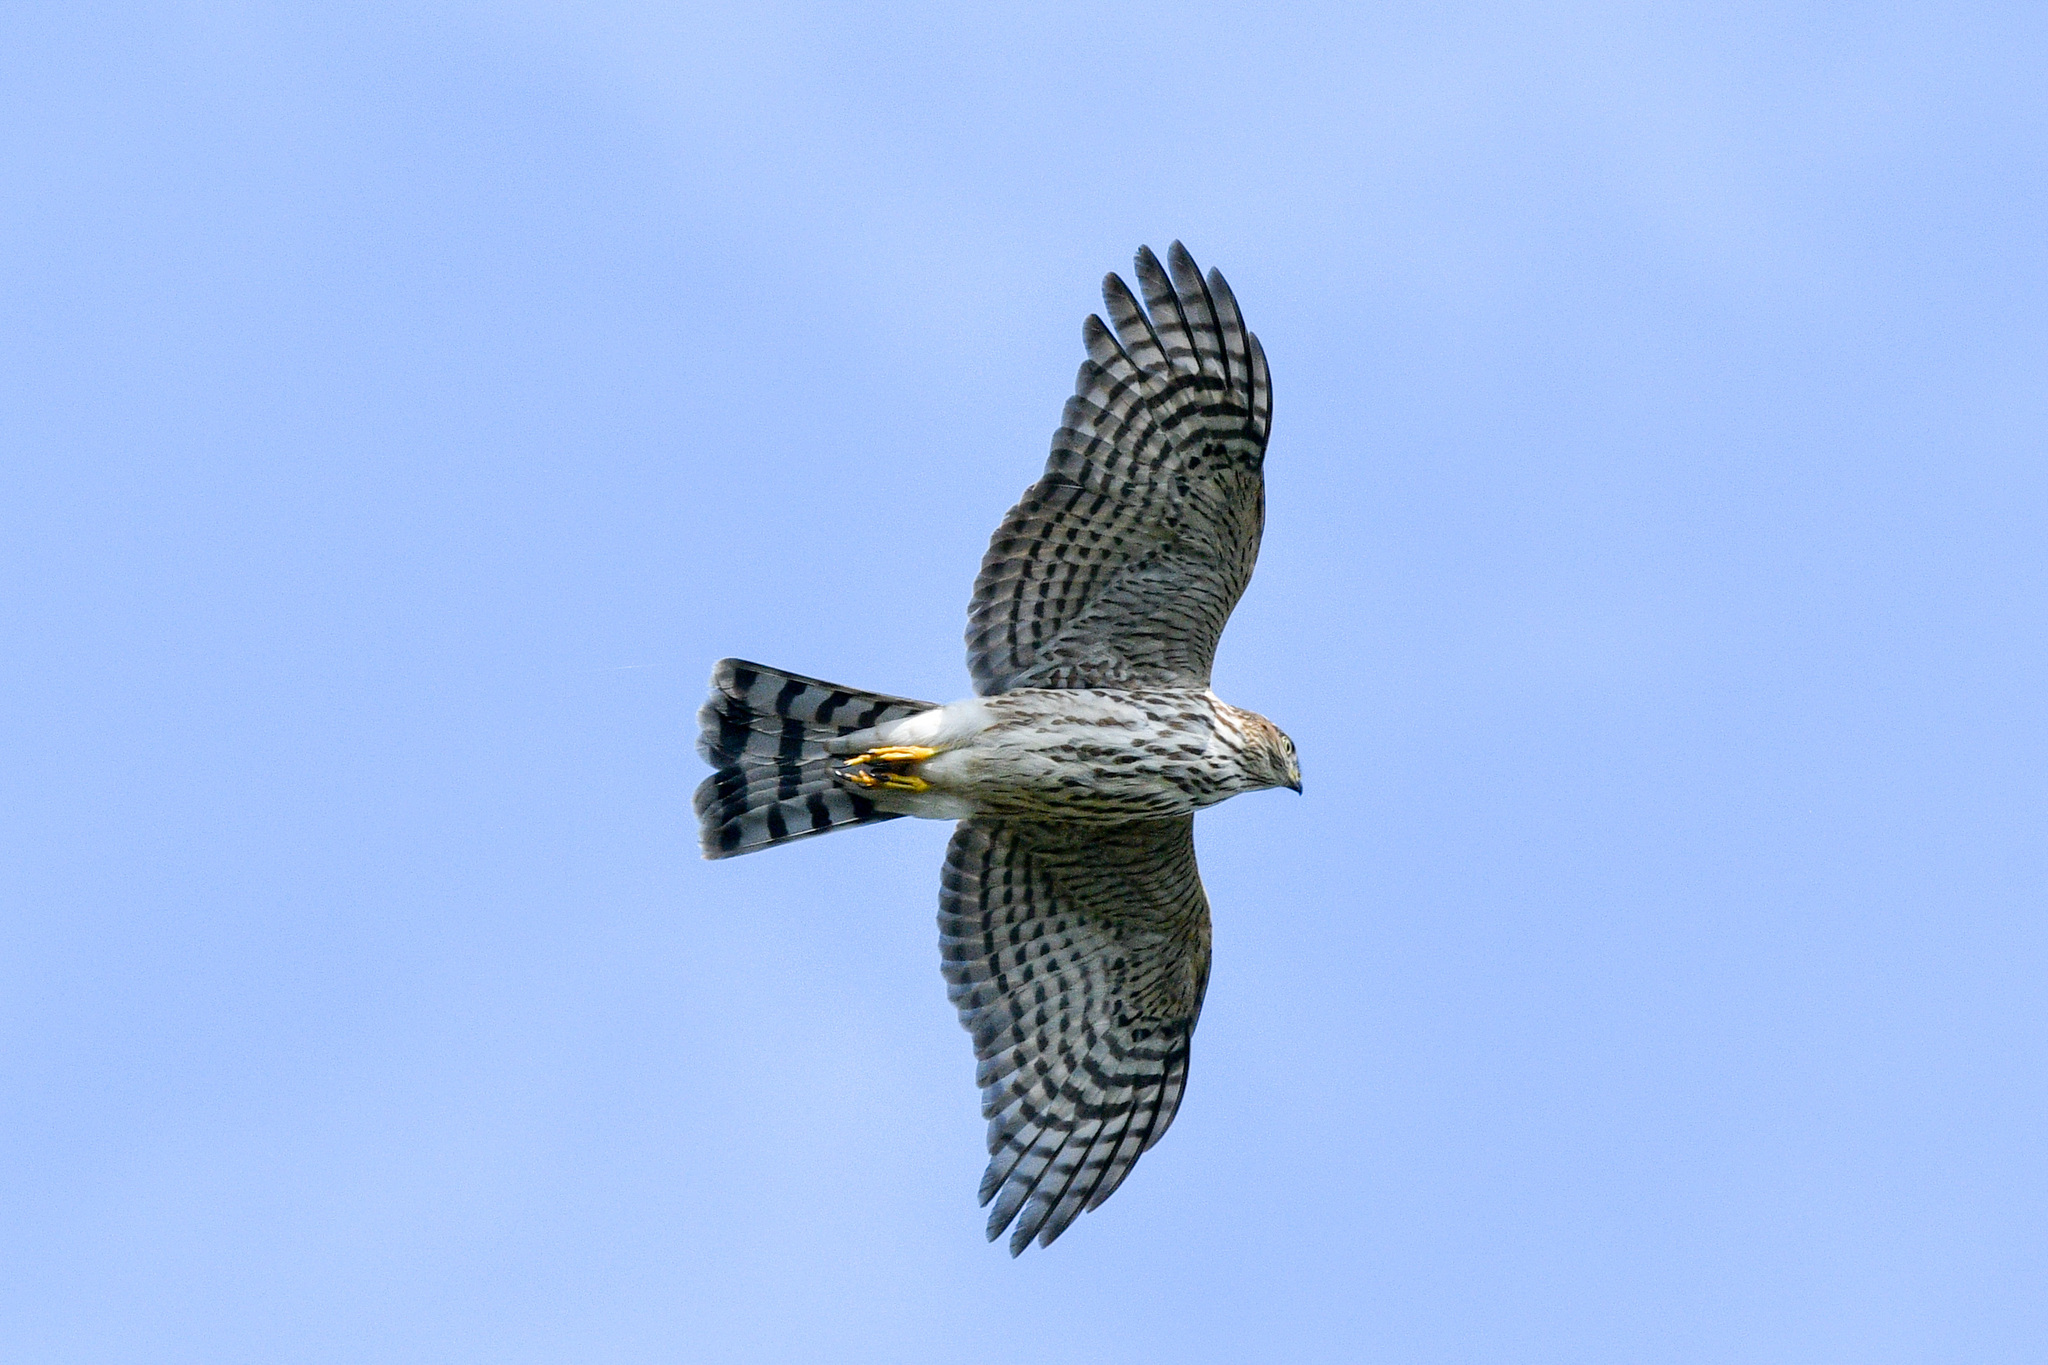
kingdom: Animalia
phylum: Chordata
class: Aves
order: Accipitriformes
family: Accipitridae
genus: Accipiter
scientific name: Accipiter striatus
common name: Sharp-shinned hawk
